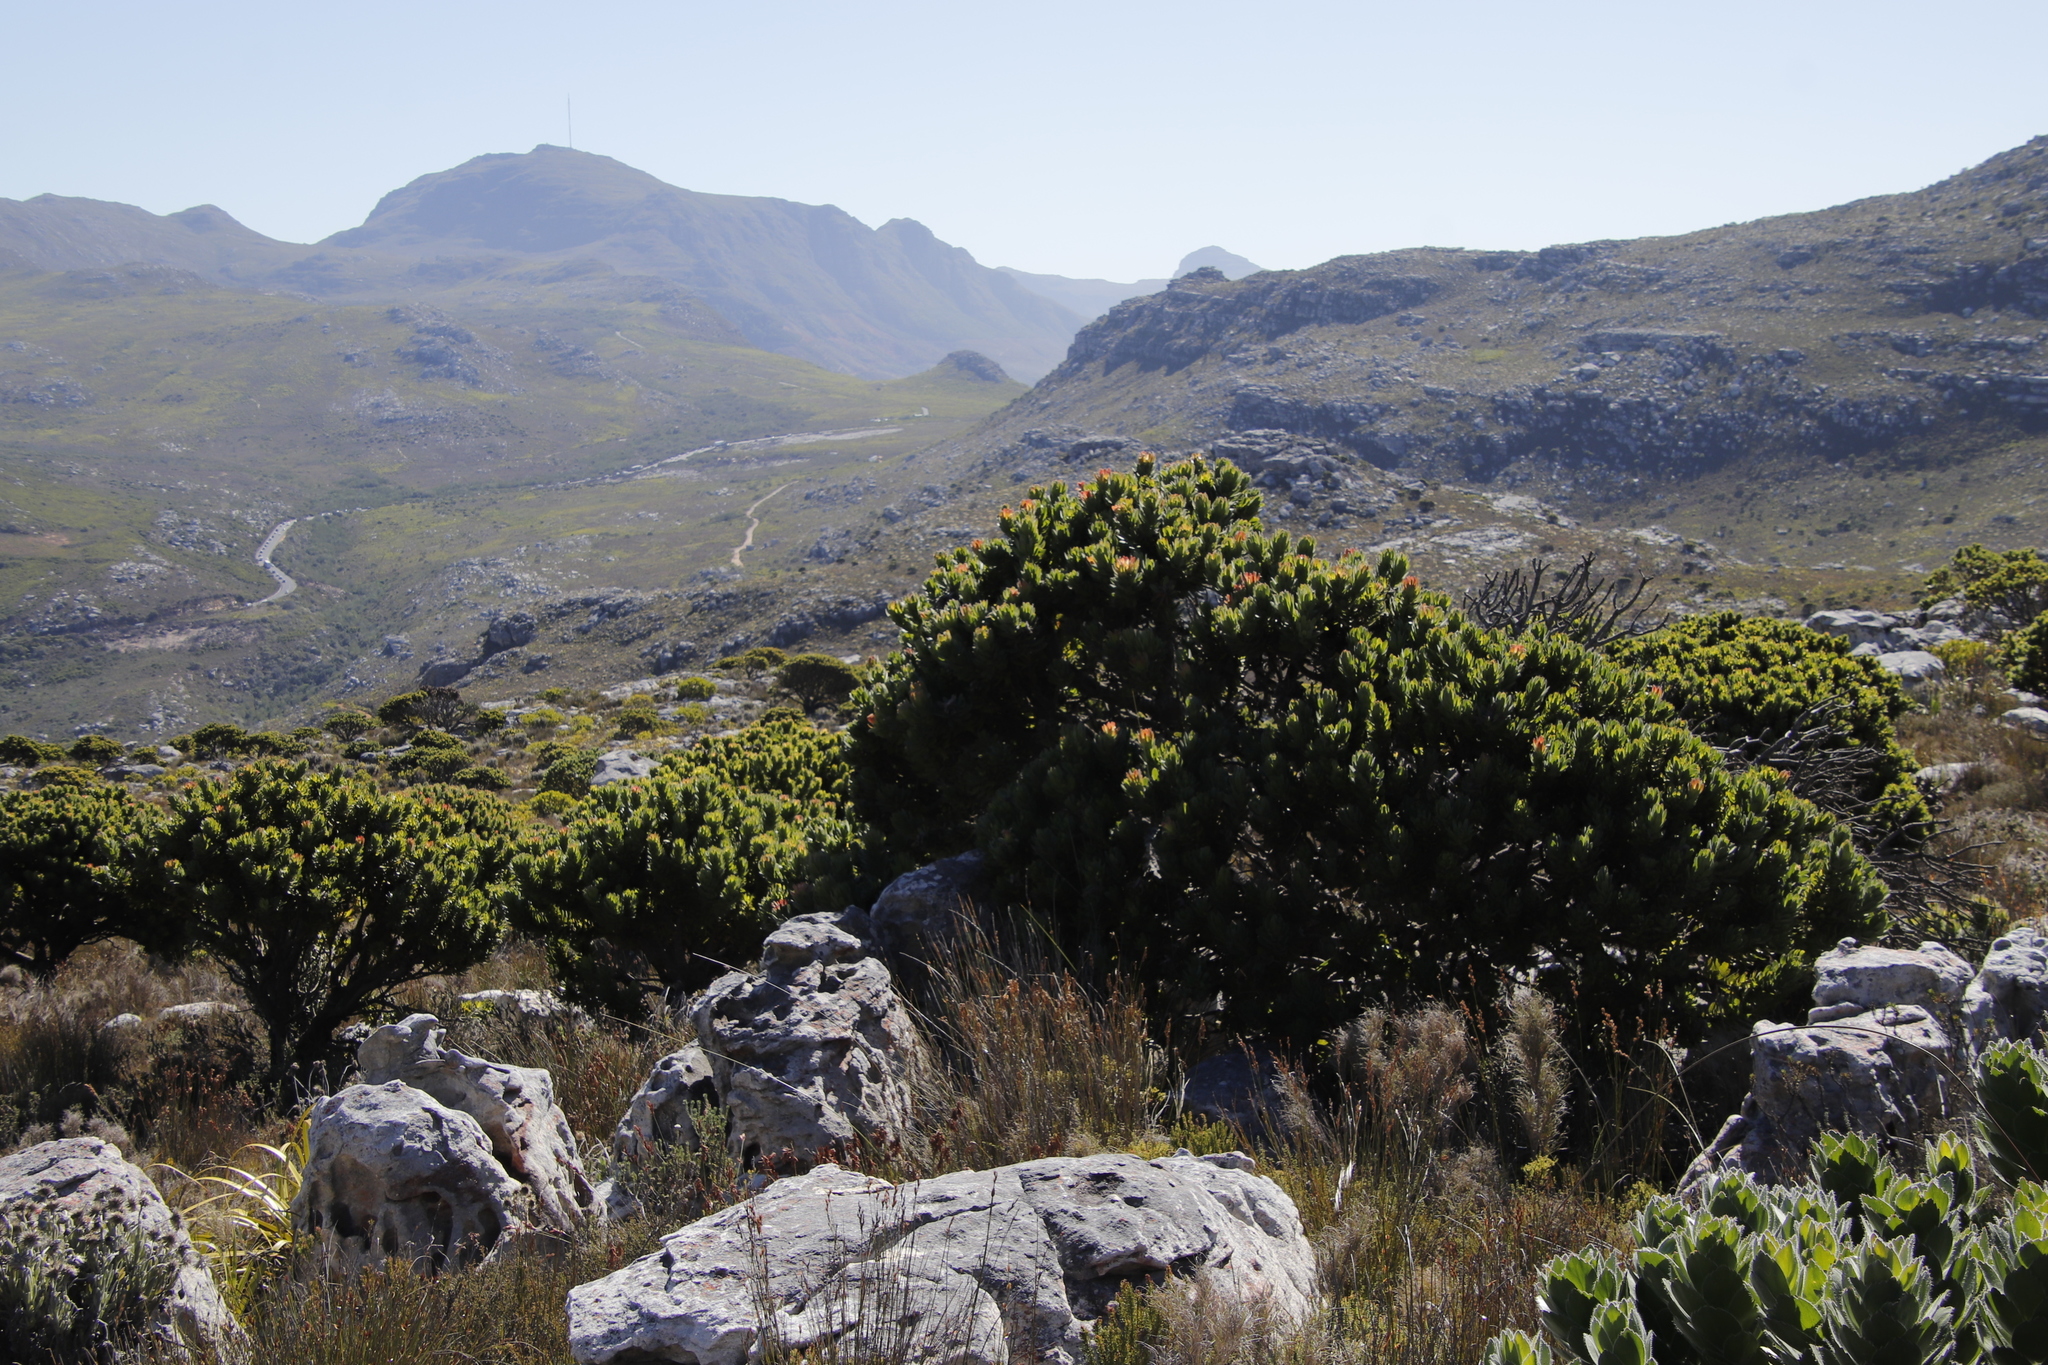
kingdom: Plantae
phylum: Tracheophyta
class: Magnoliopsida
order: Proteales
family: Proteaceae
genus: Mimetes
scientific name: Mimetes fimbriifolius
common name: Fringed bottlebrush
